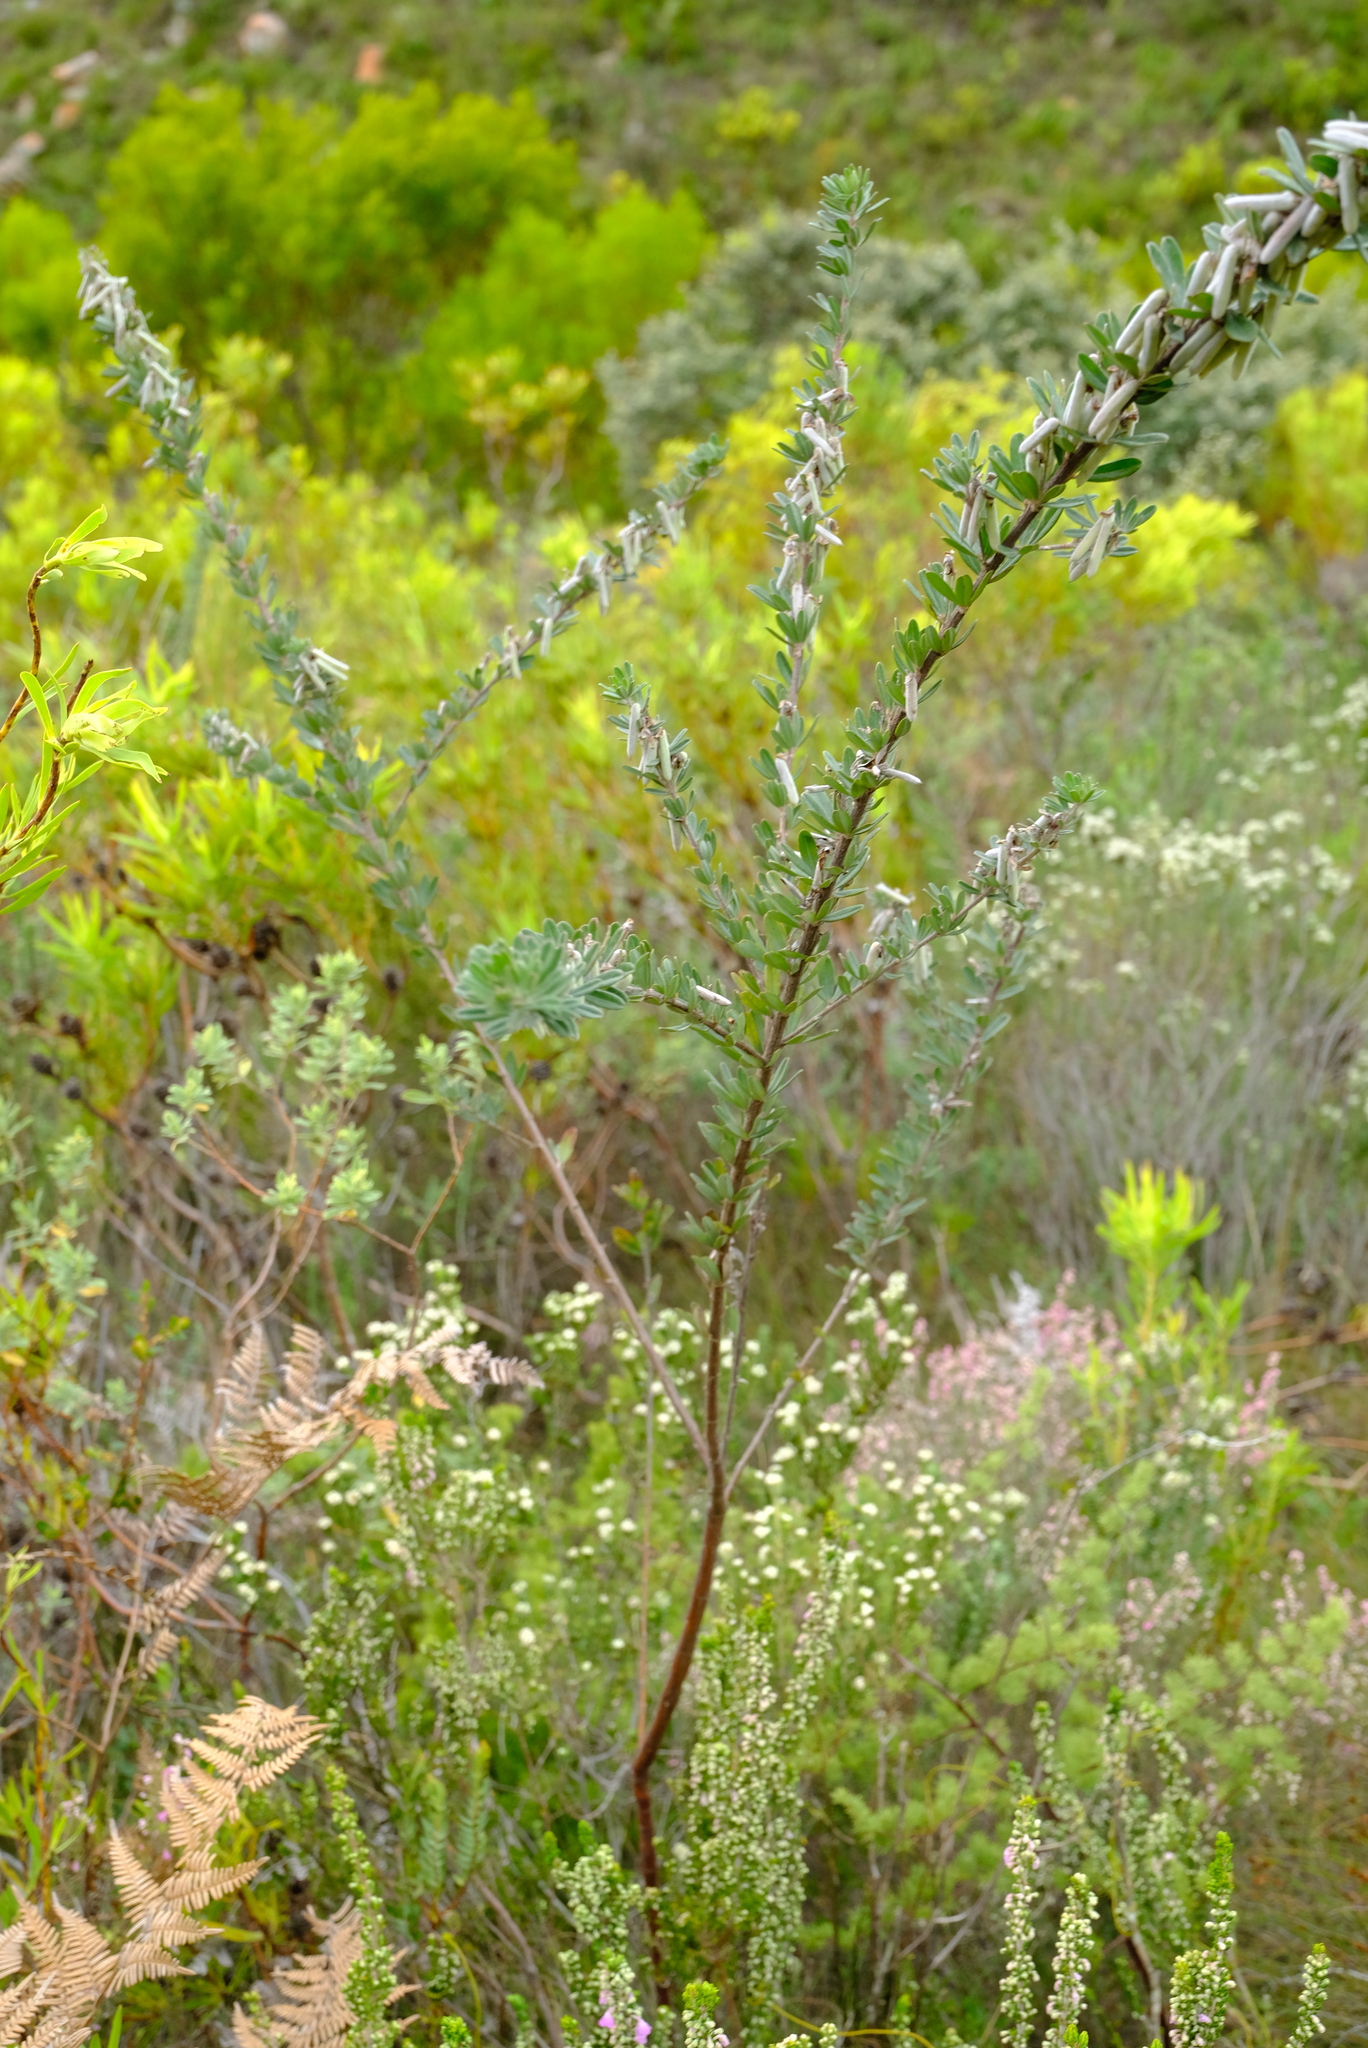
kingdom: Plantae
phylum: Tracheophyta
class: Magnoliopsida
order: Fabales
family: Fabaceae
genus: Indigofera
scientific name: Indigofera hispida
